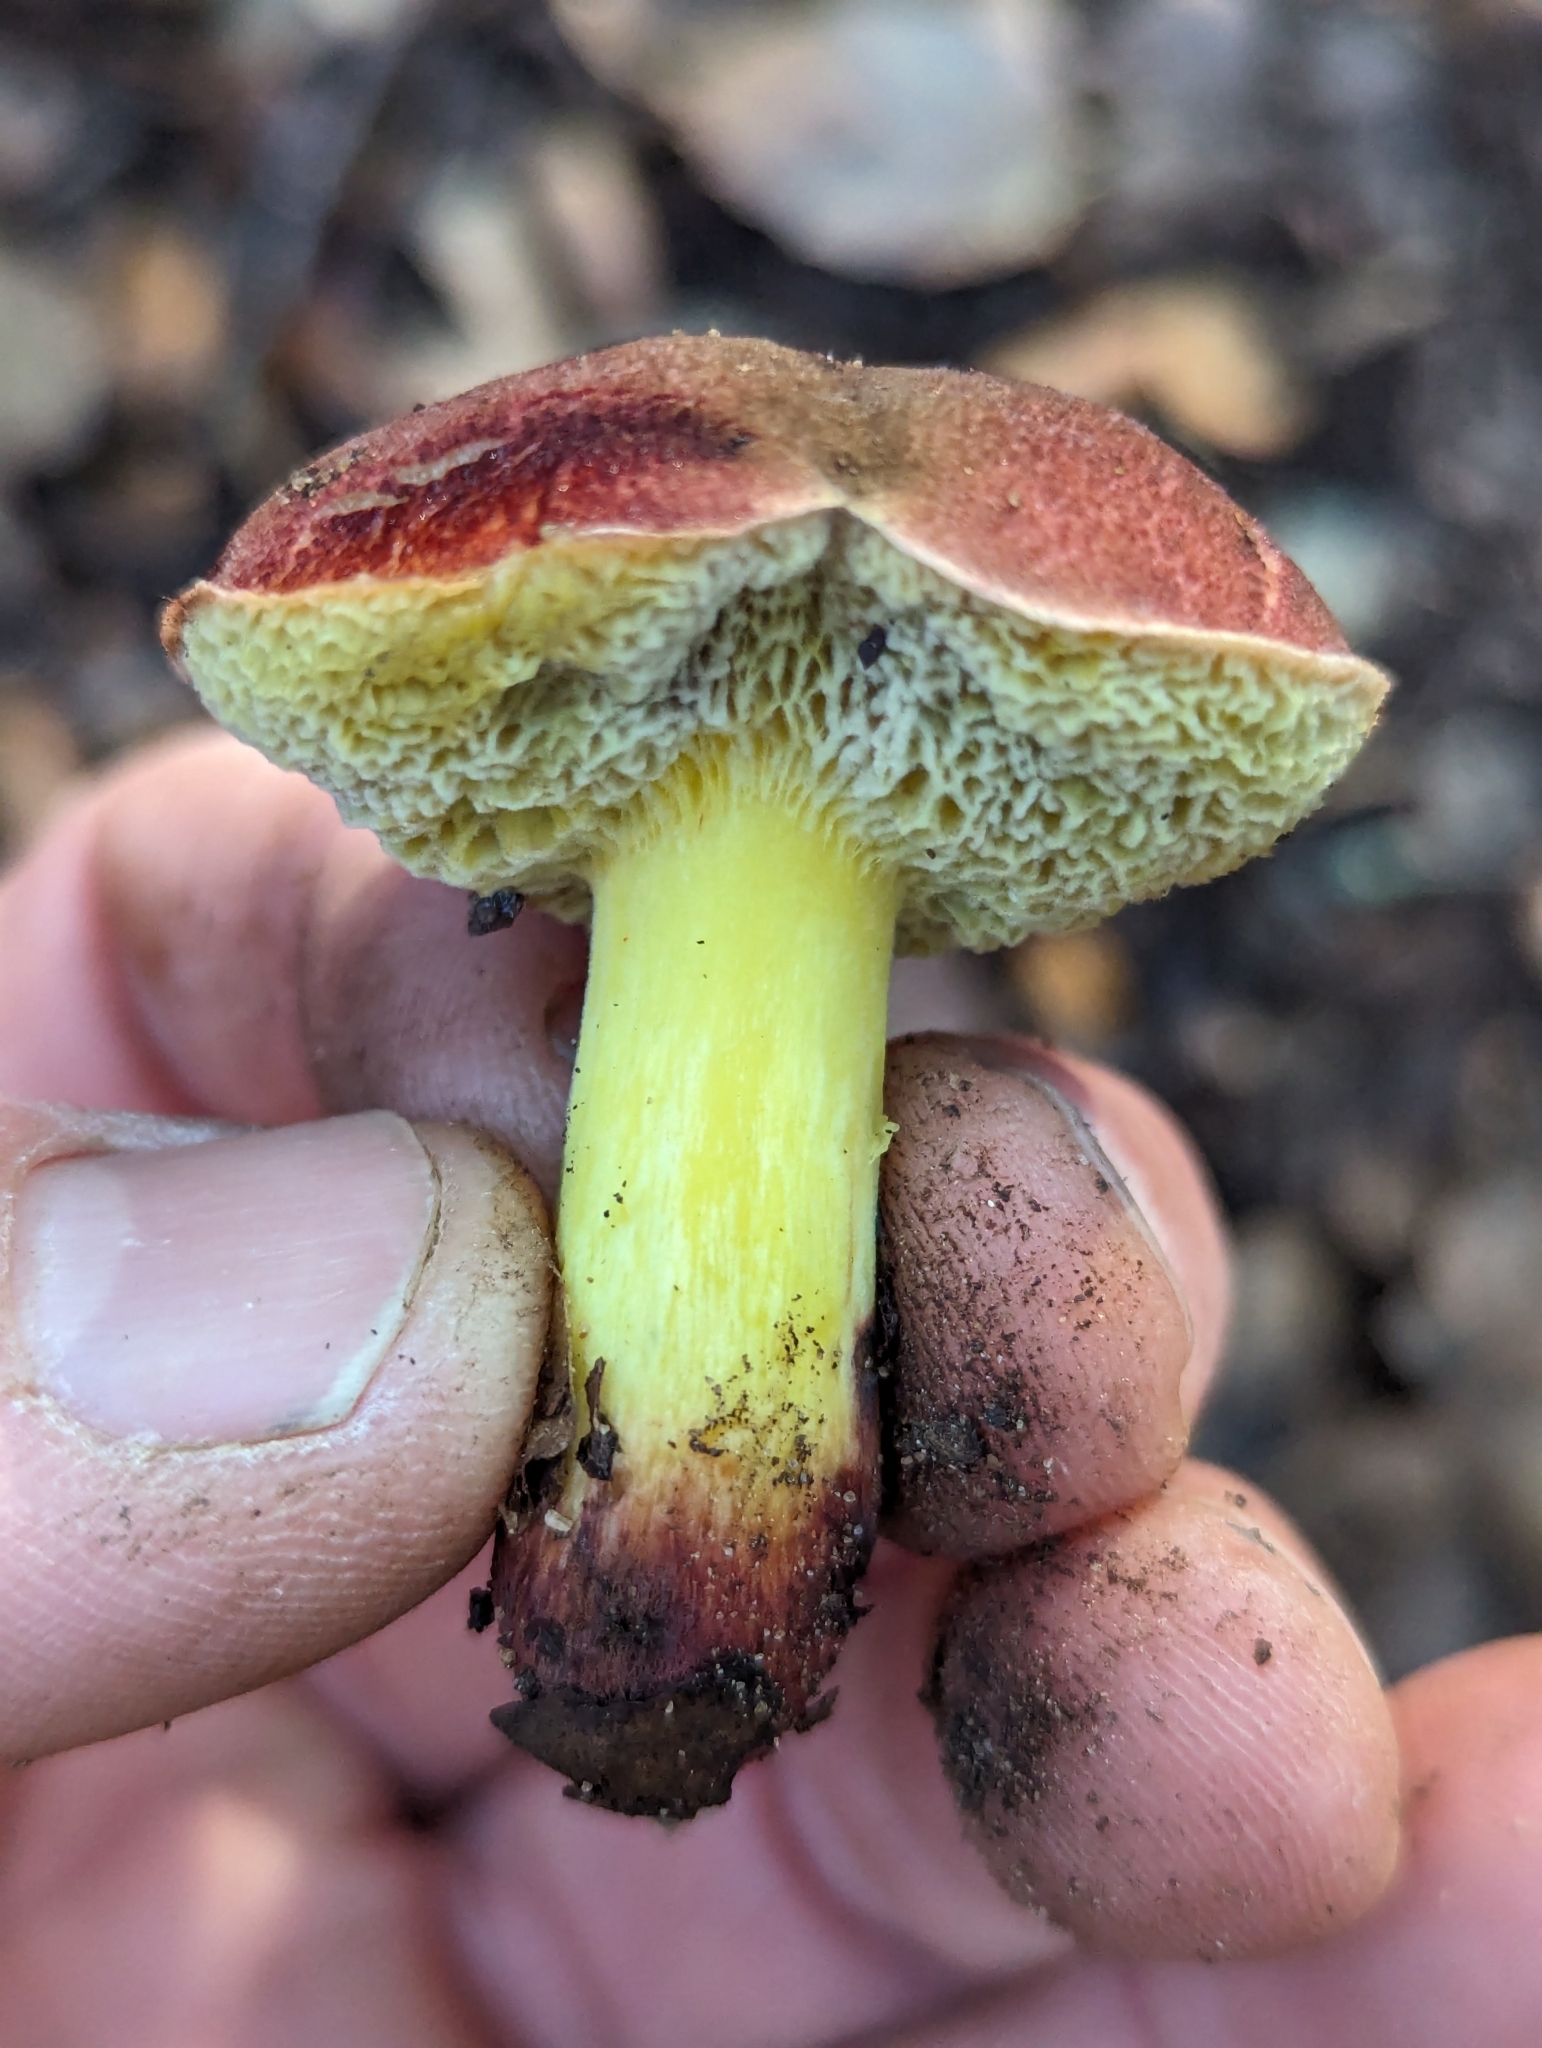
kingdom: Fungi
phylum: Basidiomycota
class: Agaricomycetes
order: Boletales
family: Boletaceae
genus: Xerocomellus
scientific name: Xerocomellus dryophilus
